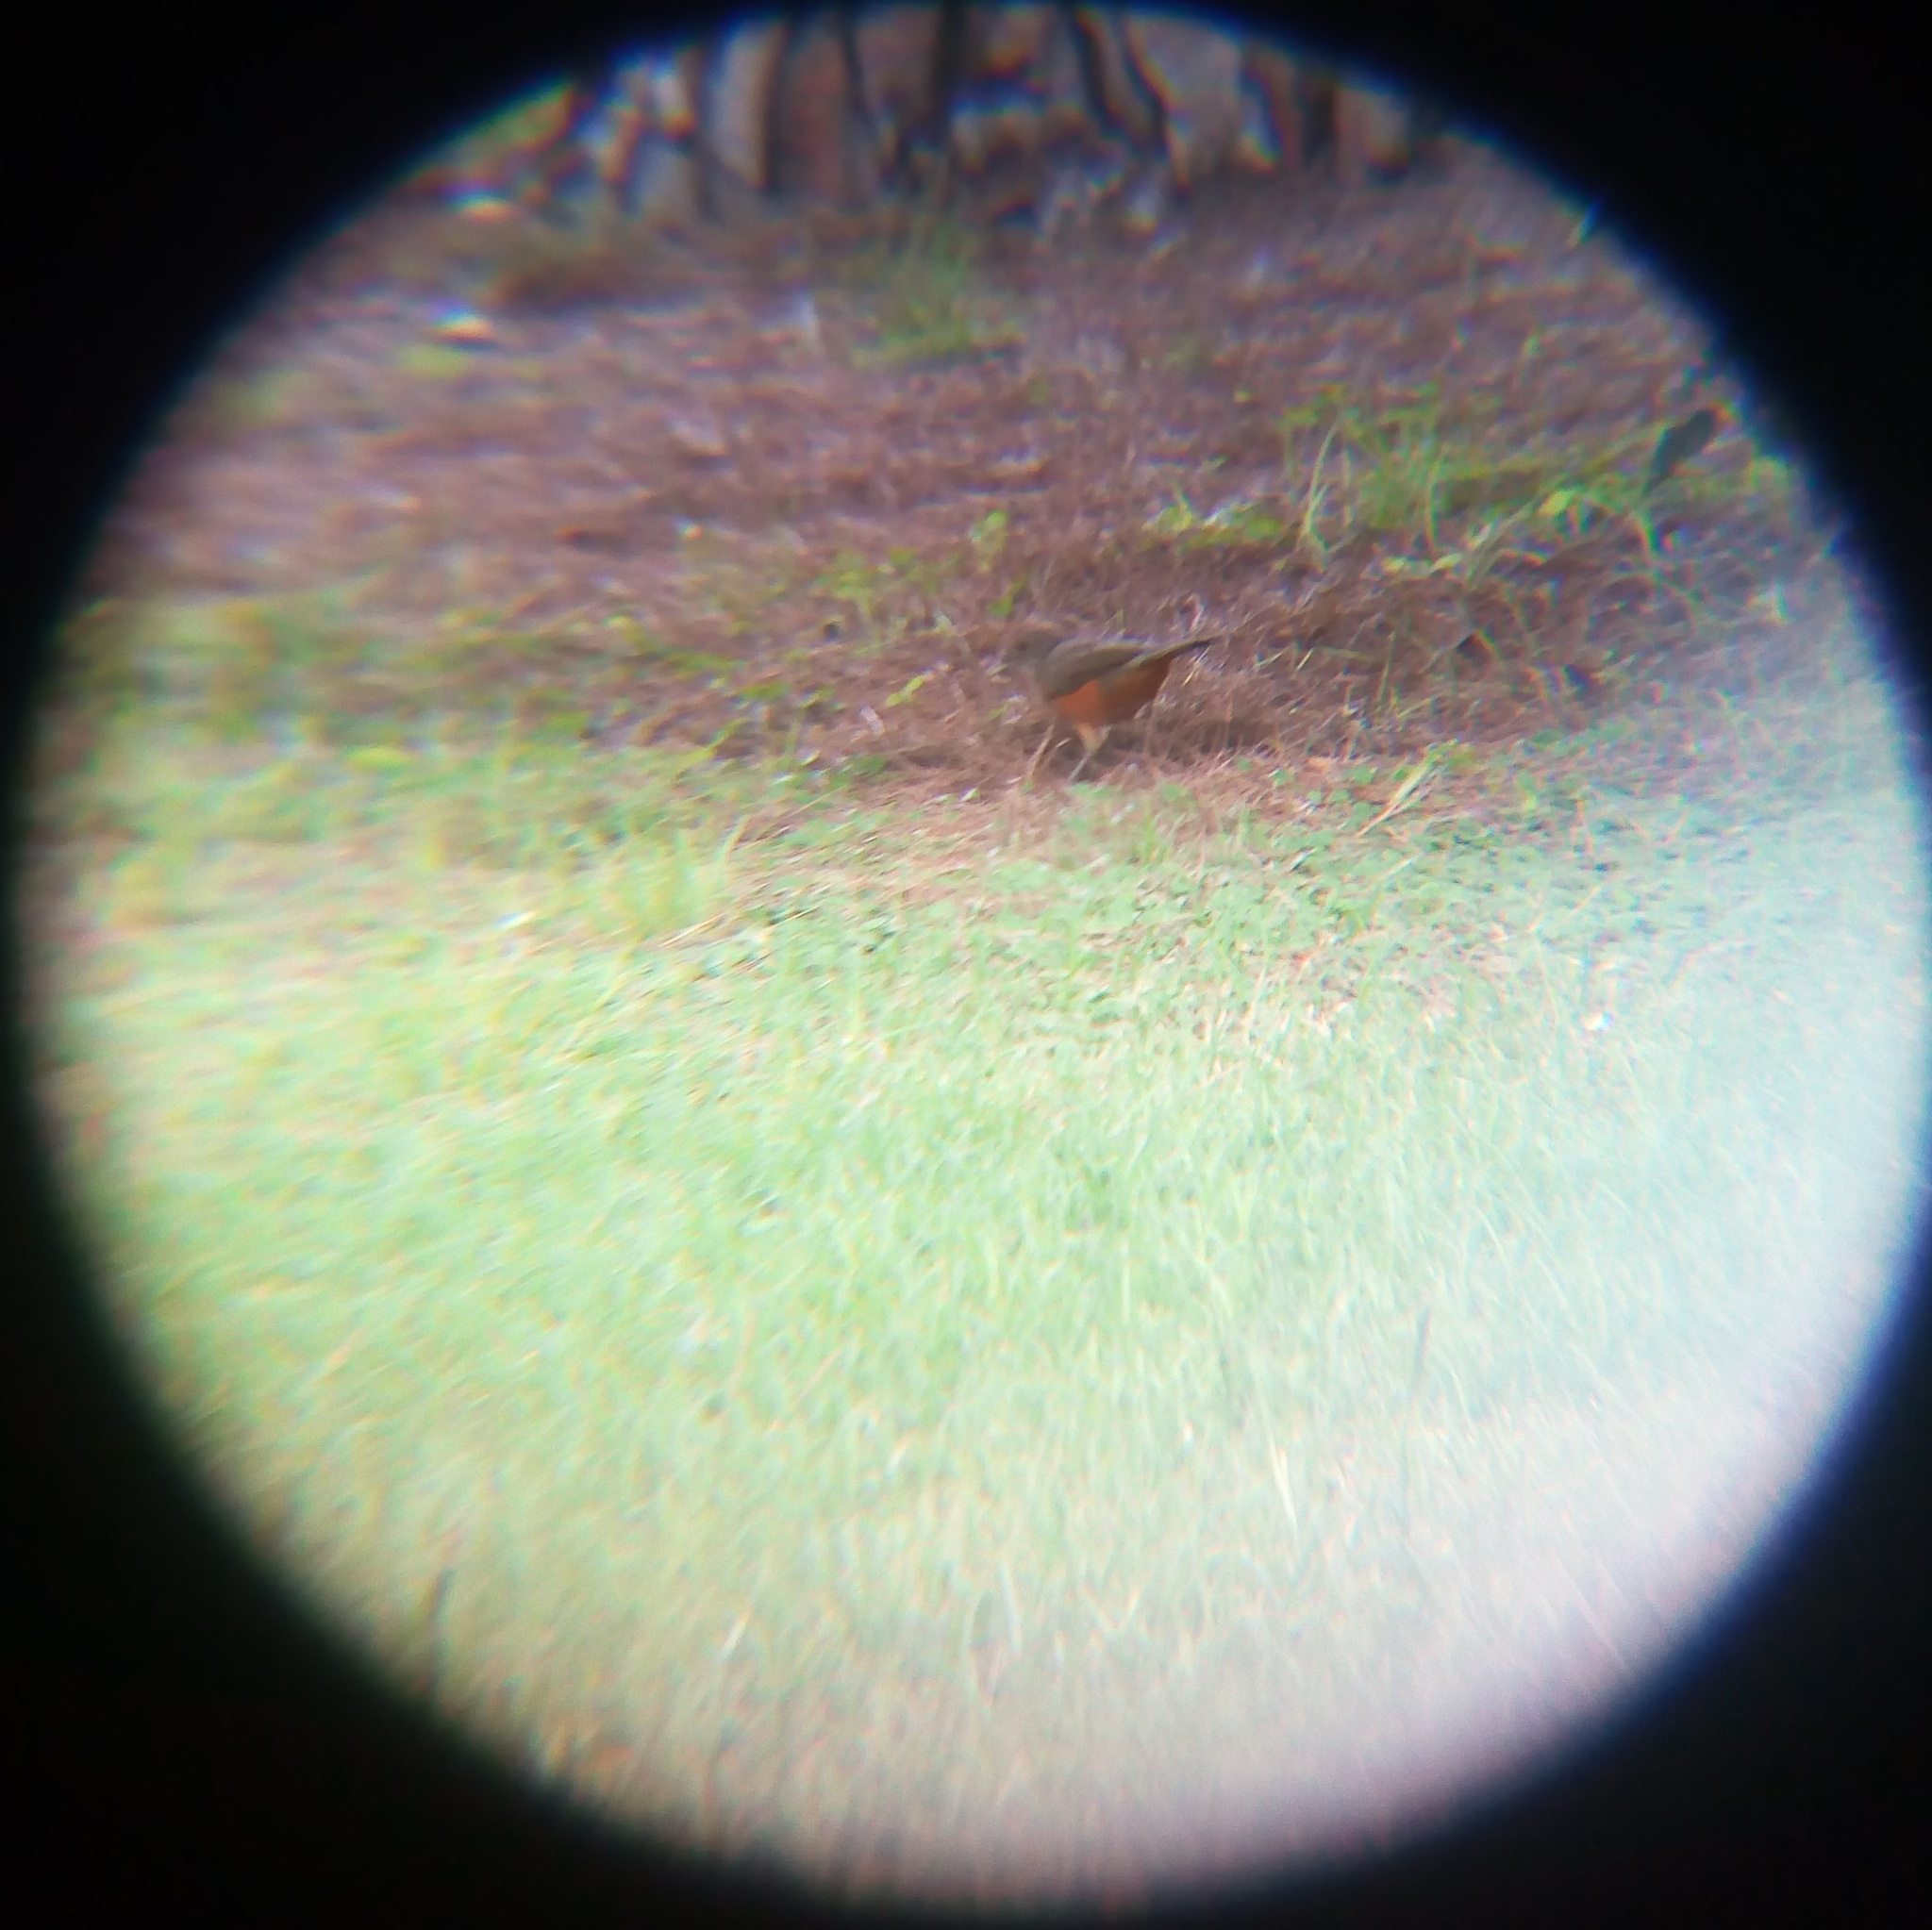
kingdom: Animalia
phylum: Chordata
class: Aves
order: Passeriformes
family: Turdidae
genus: Turdus
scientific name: Turdus rufiventris
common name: Rufous-bellied thrush
